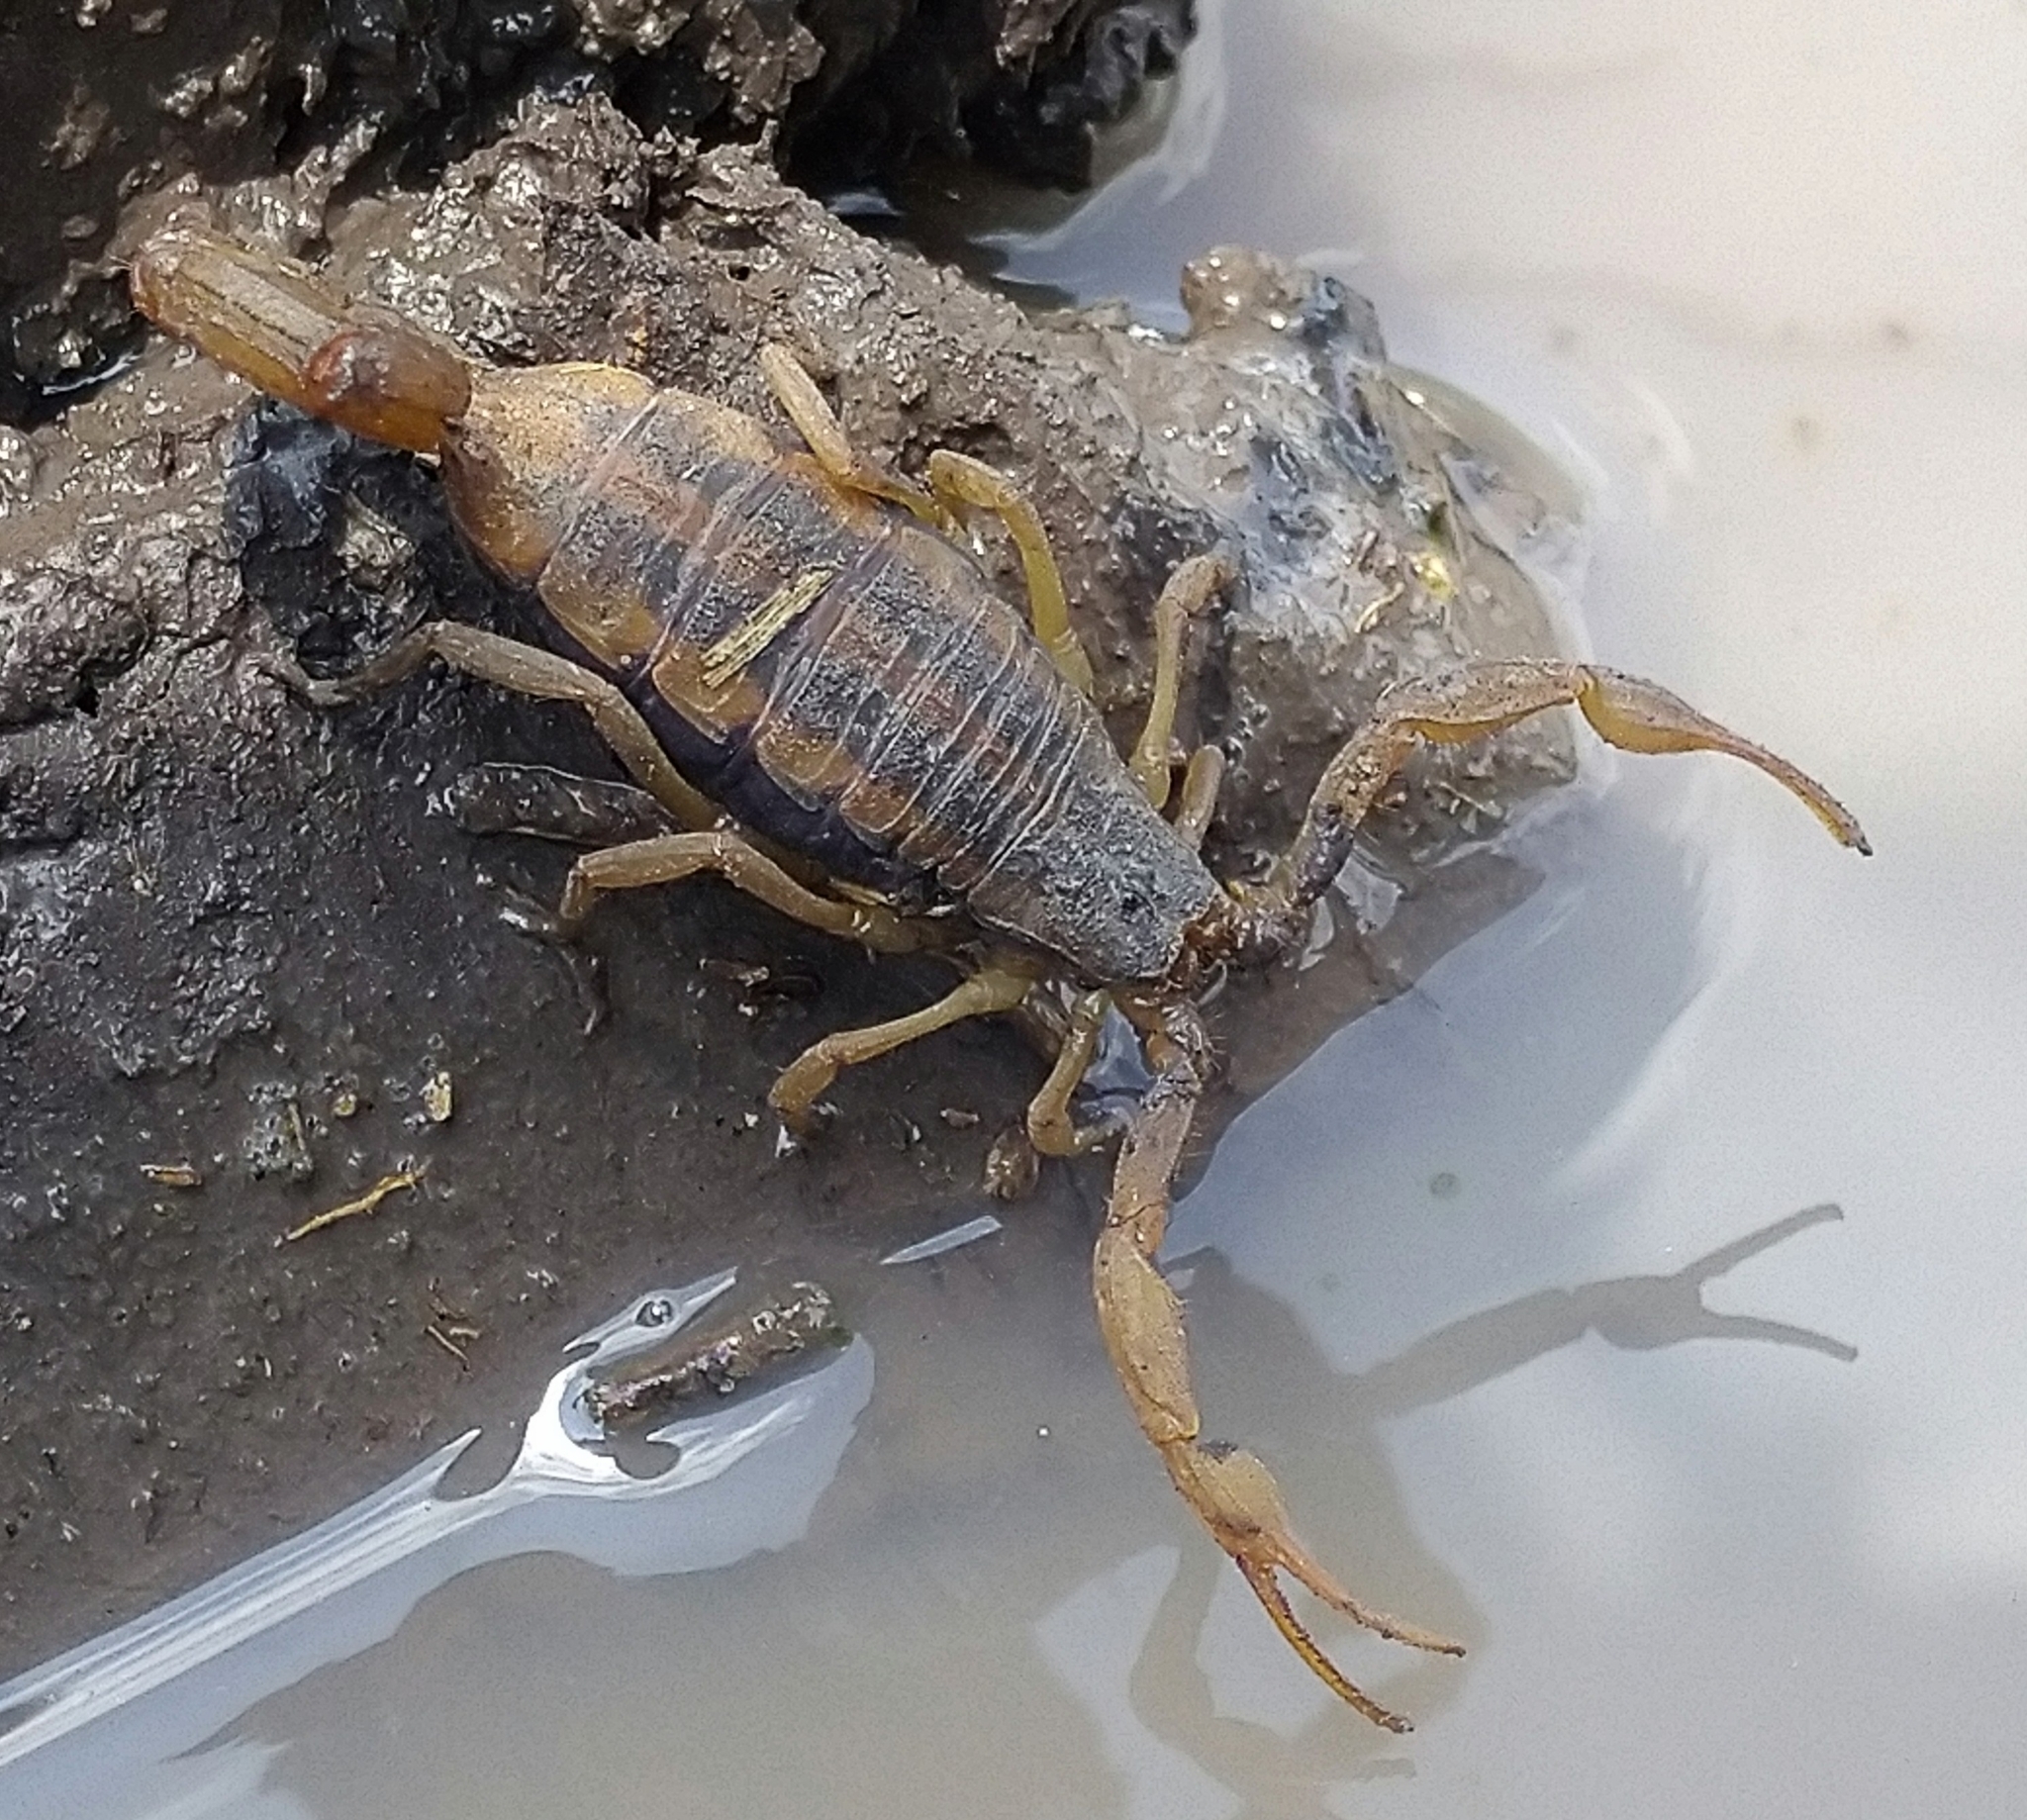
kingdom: Animalia
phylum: Arthropoda
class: Arachnida
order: Scorpiones
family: Buthidae
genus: Centruroides
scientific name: Centruroides ornatus
